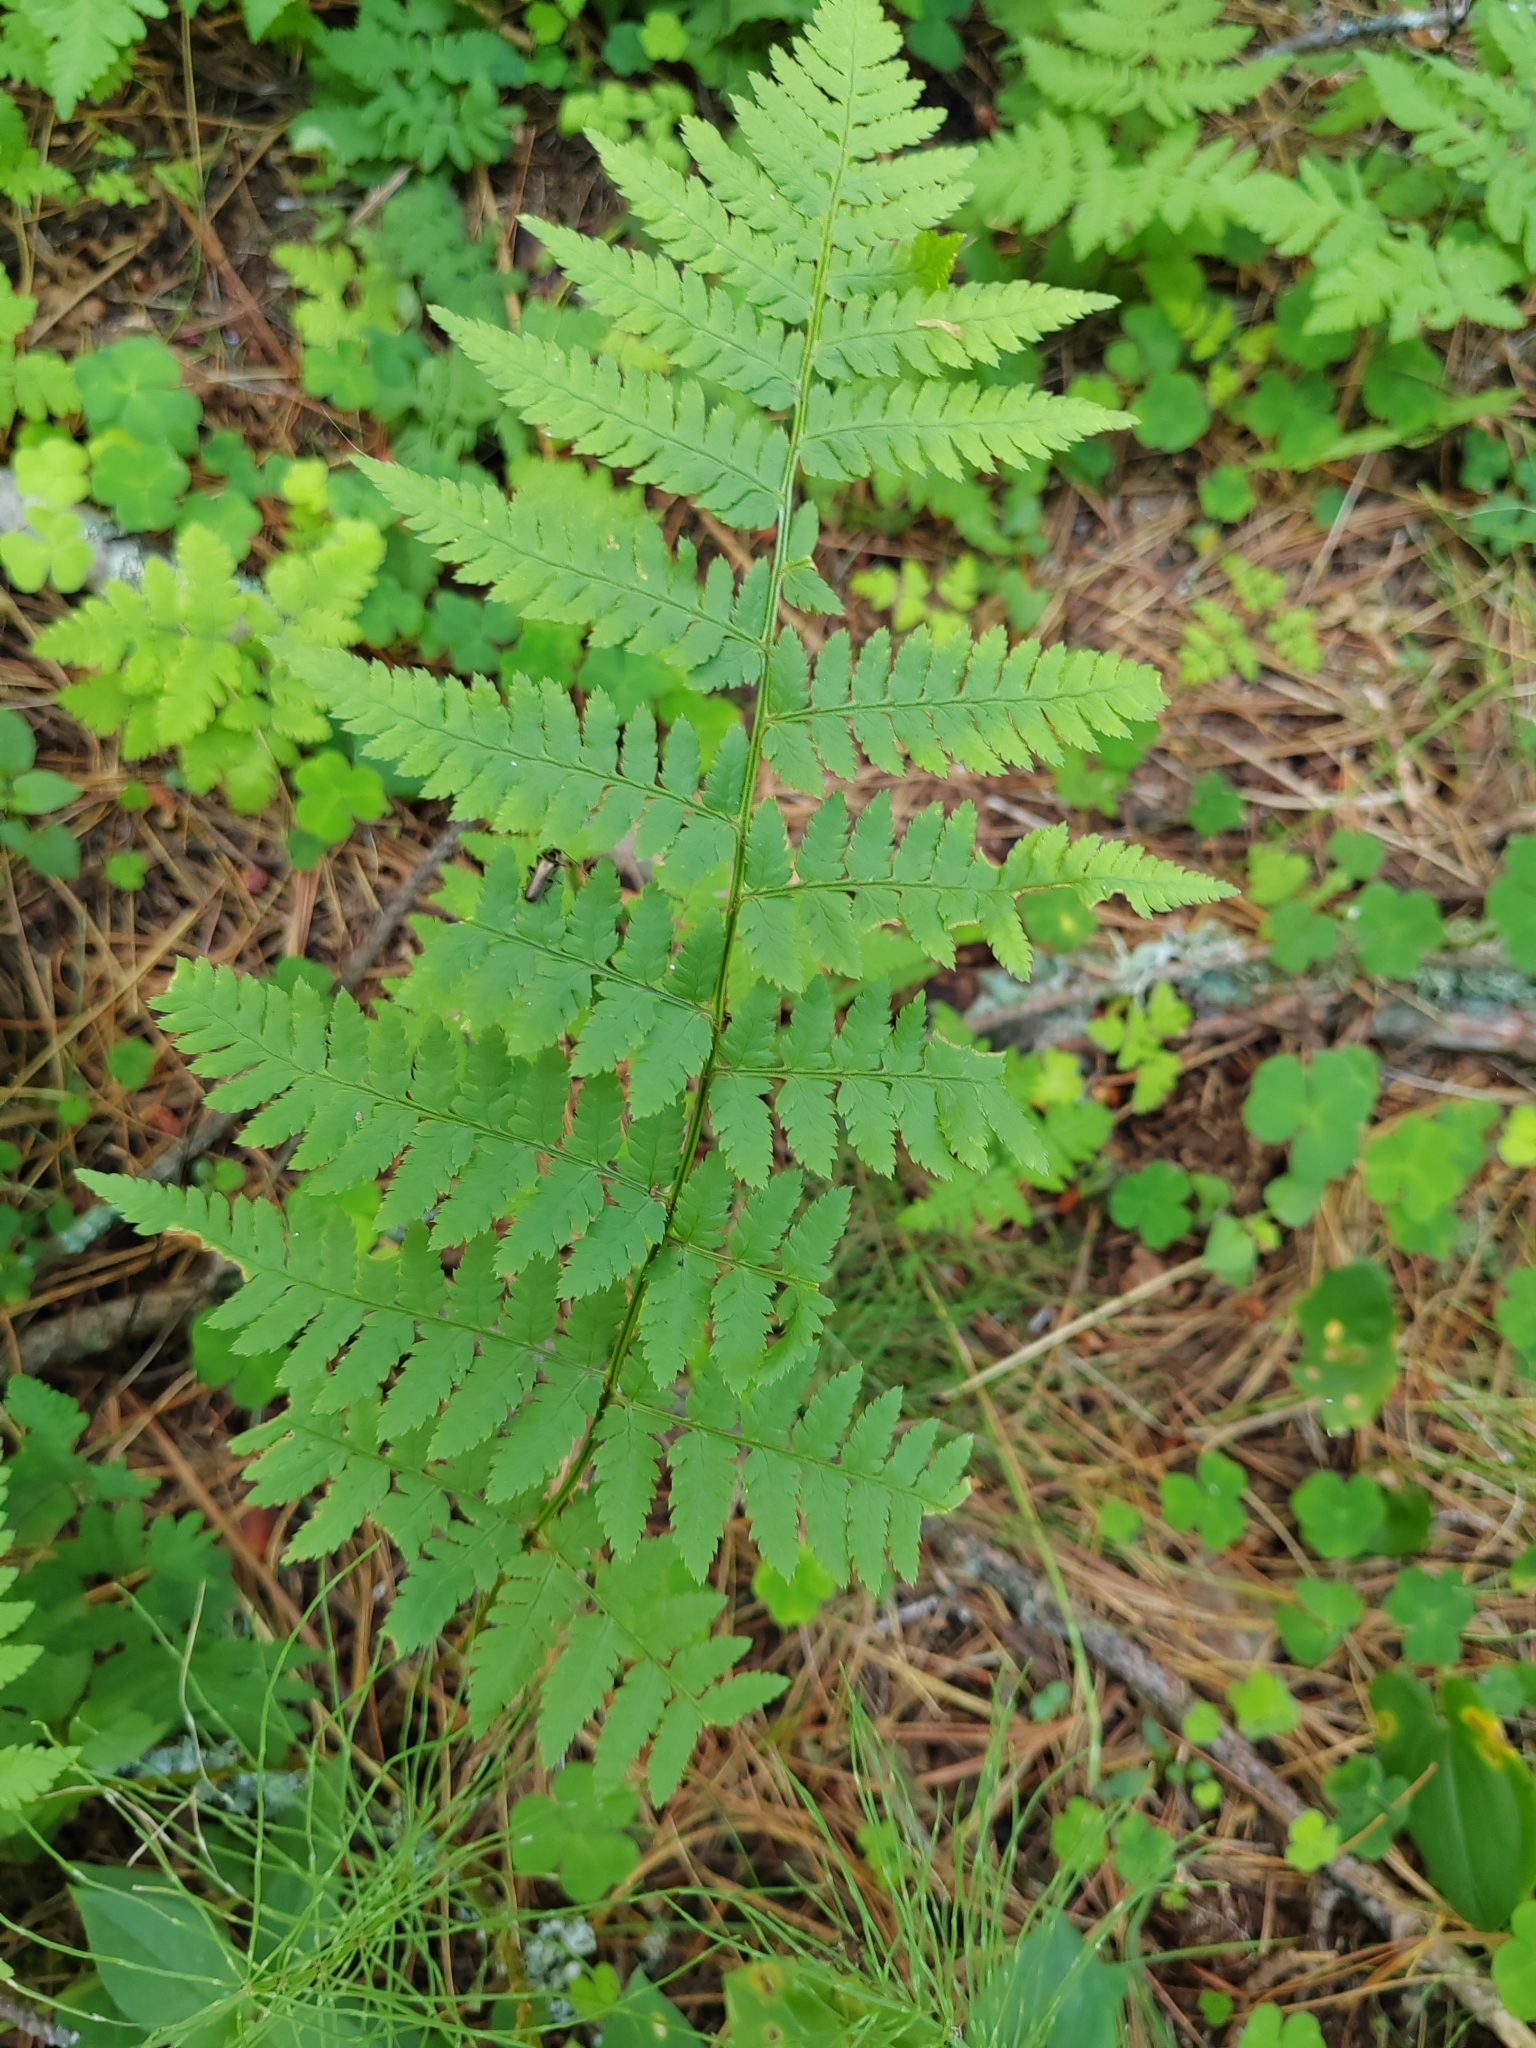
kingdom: Plantae
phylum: Tracheophyta
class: Polypodiopsida
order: Polypodiales
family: Dryopteridaceae
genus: Dryopteris
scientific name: Dryopteris carthusiana
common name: Narrow buckler-fern
